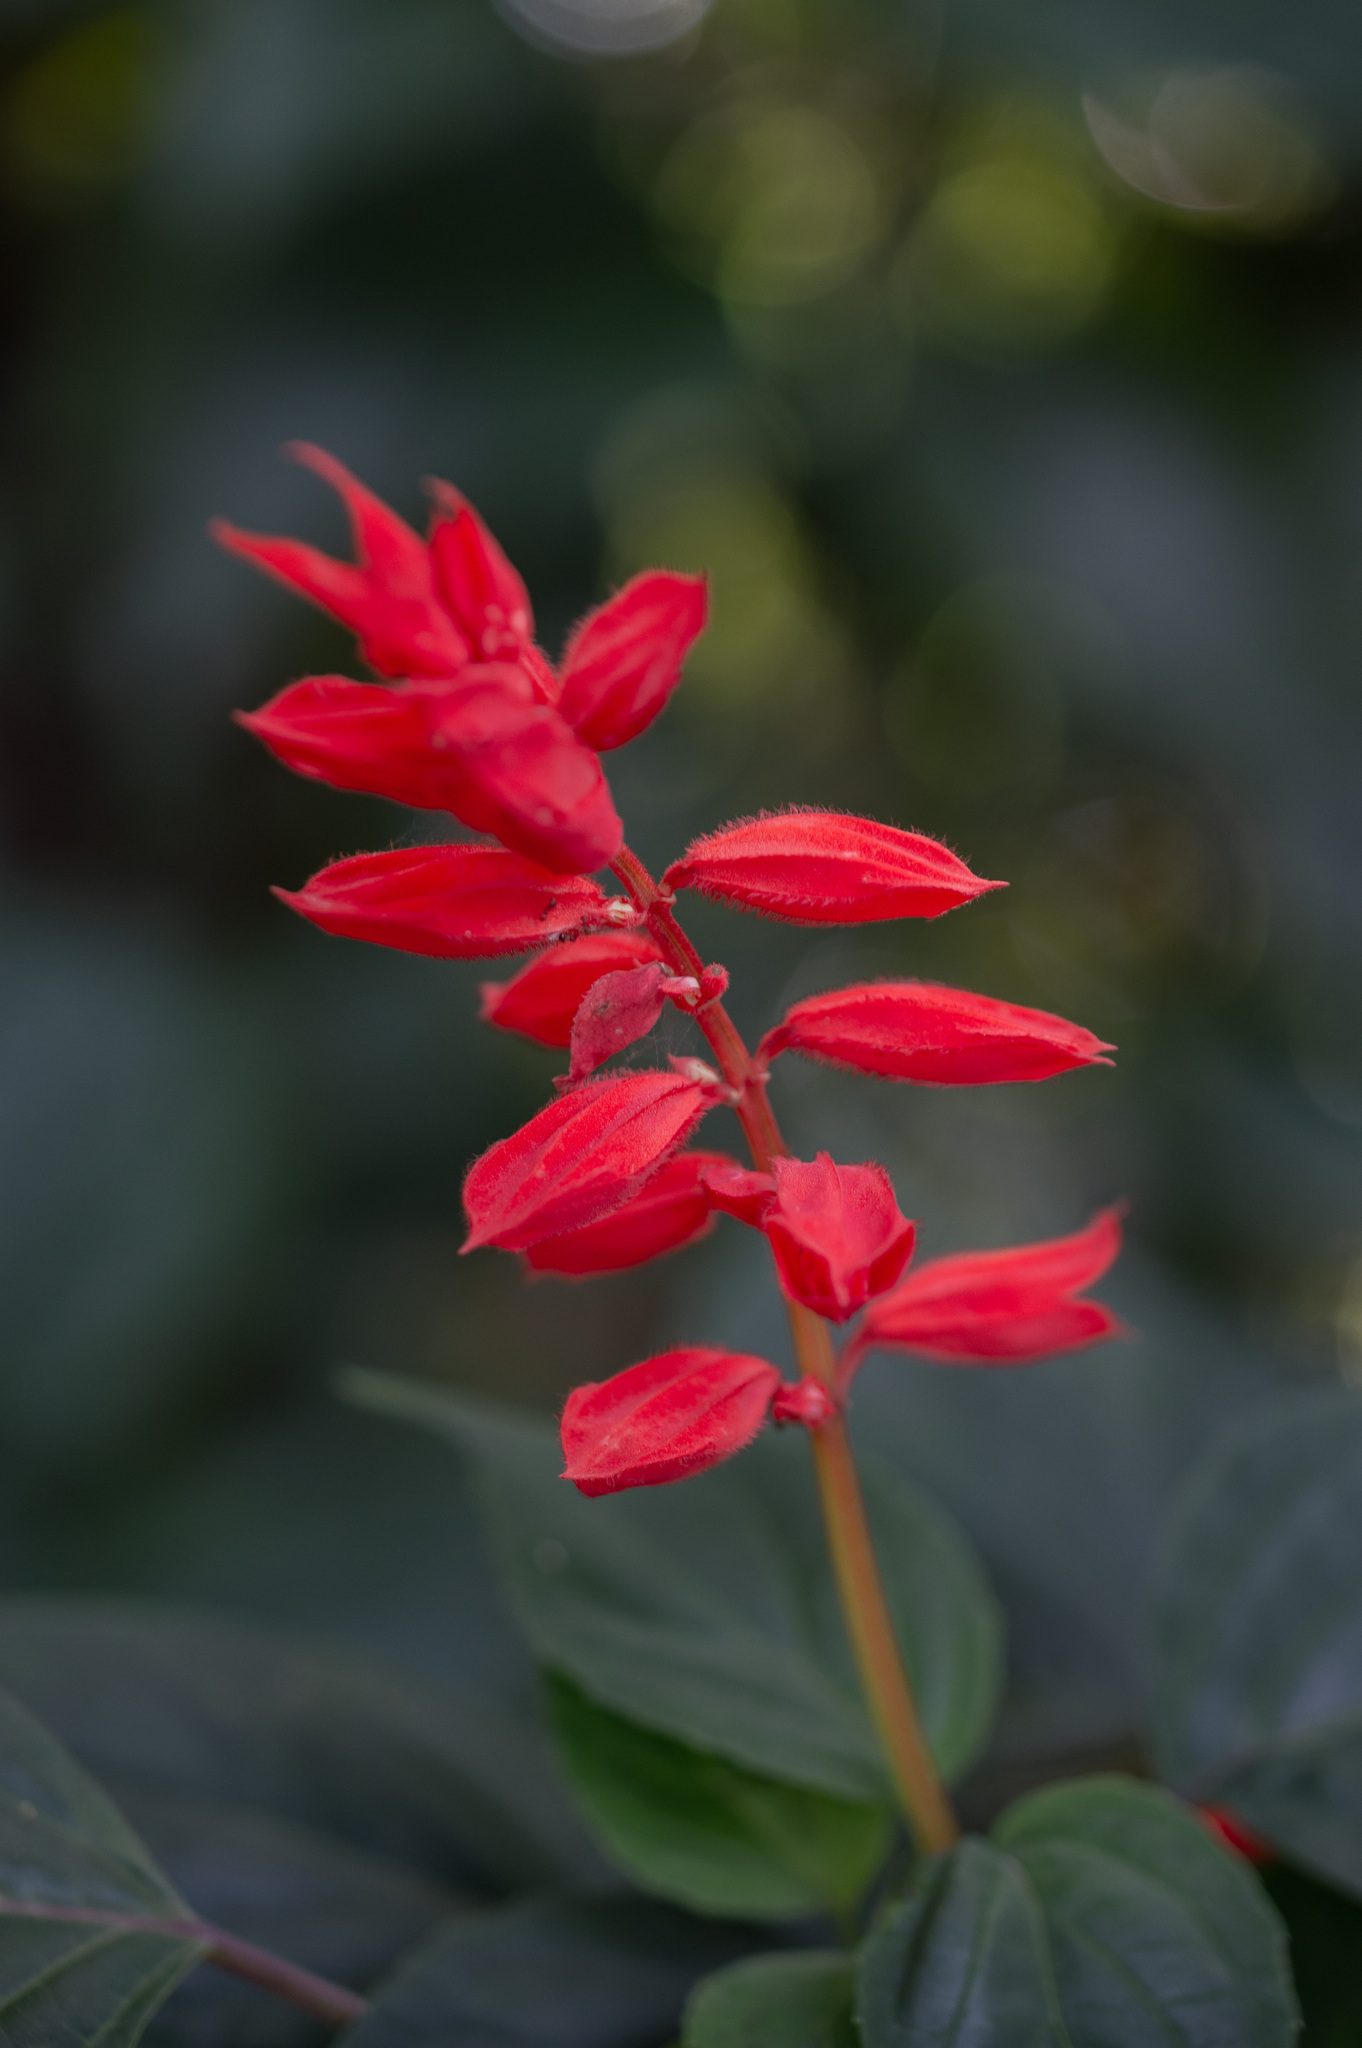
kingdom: Plantae
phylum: Tracheophyta
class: Magnoliopsida
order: Lamiales
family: Lamiaceae
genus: Salvia
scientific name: Salvia splendens
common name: Scarlet sage
